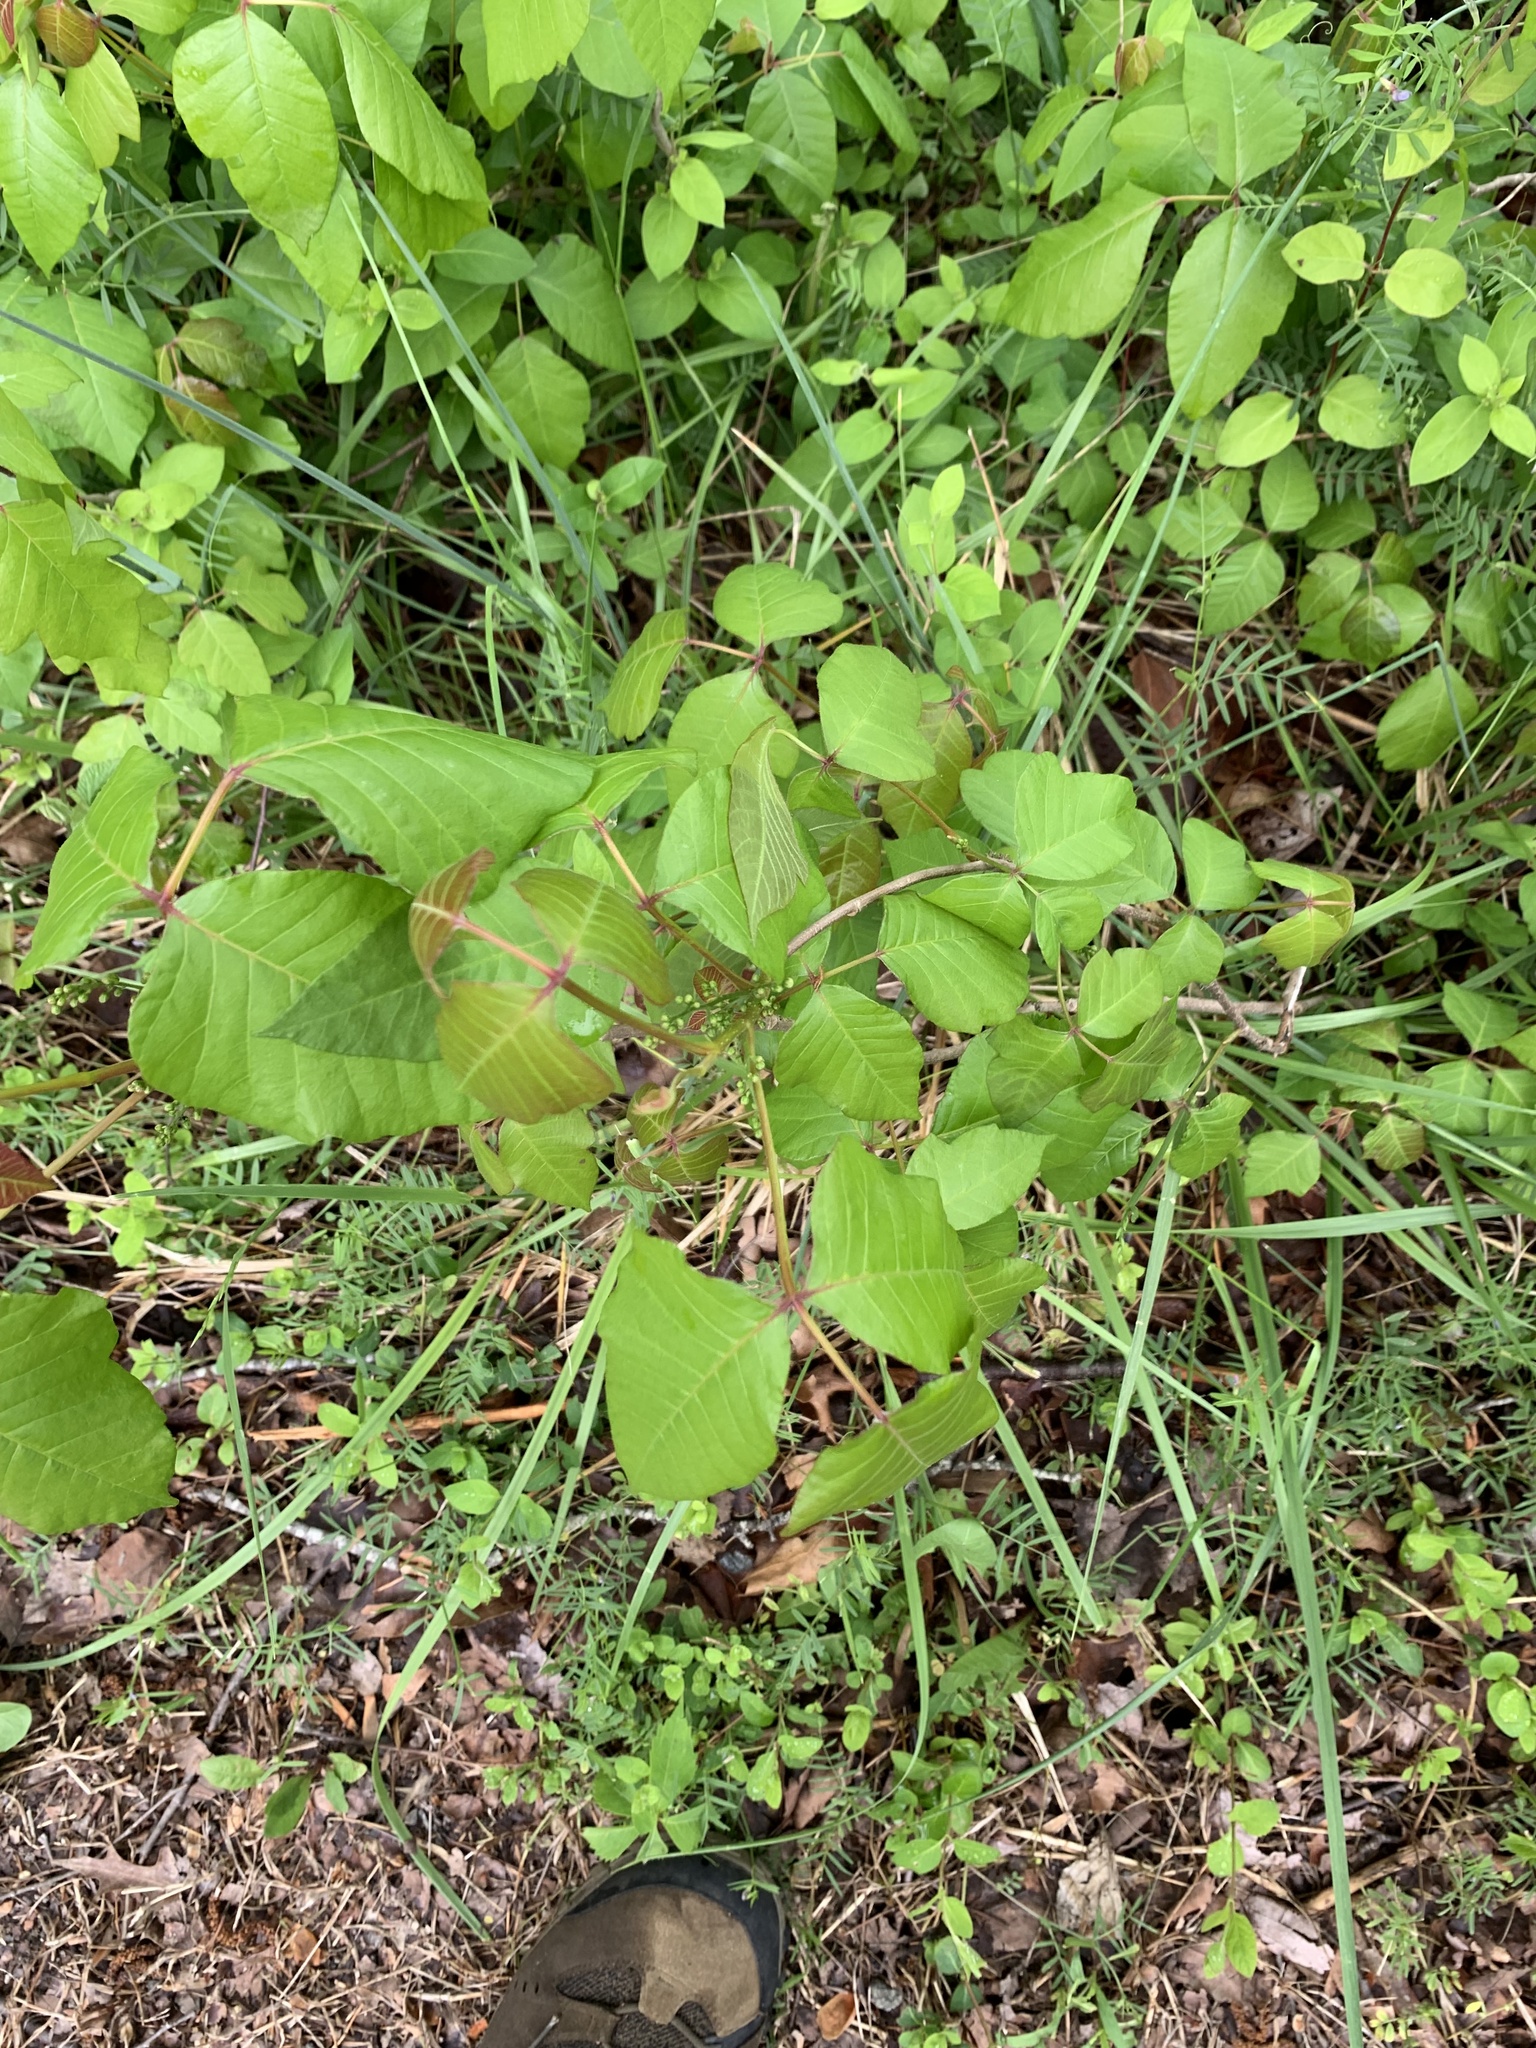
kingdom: Plantae
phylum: Tracheophyta
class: Magnoliopsida
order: Sapindales
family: Anacardiaceae
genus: Toxicodendron
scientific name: Toxicodendron radicans
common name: Poison ivy
